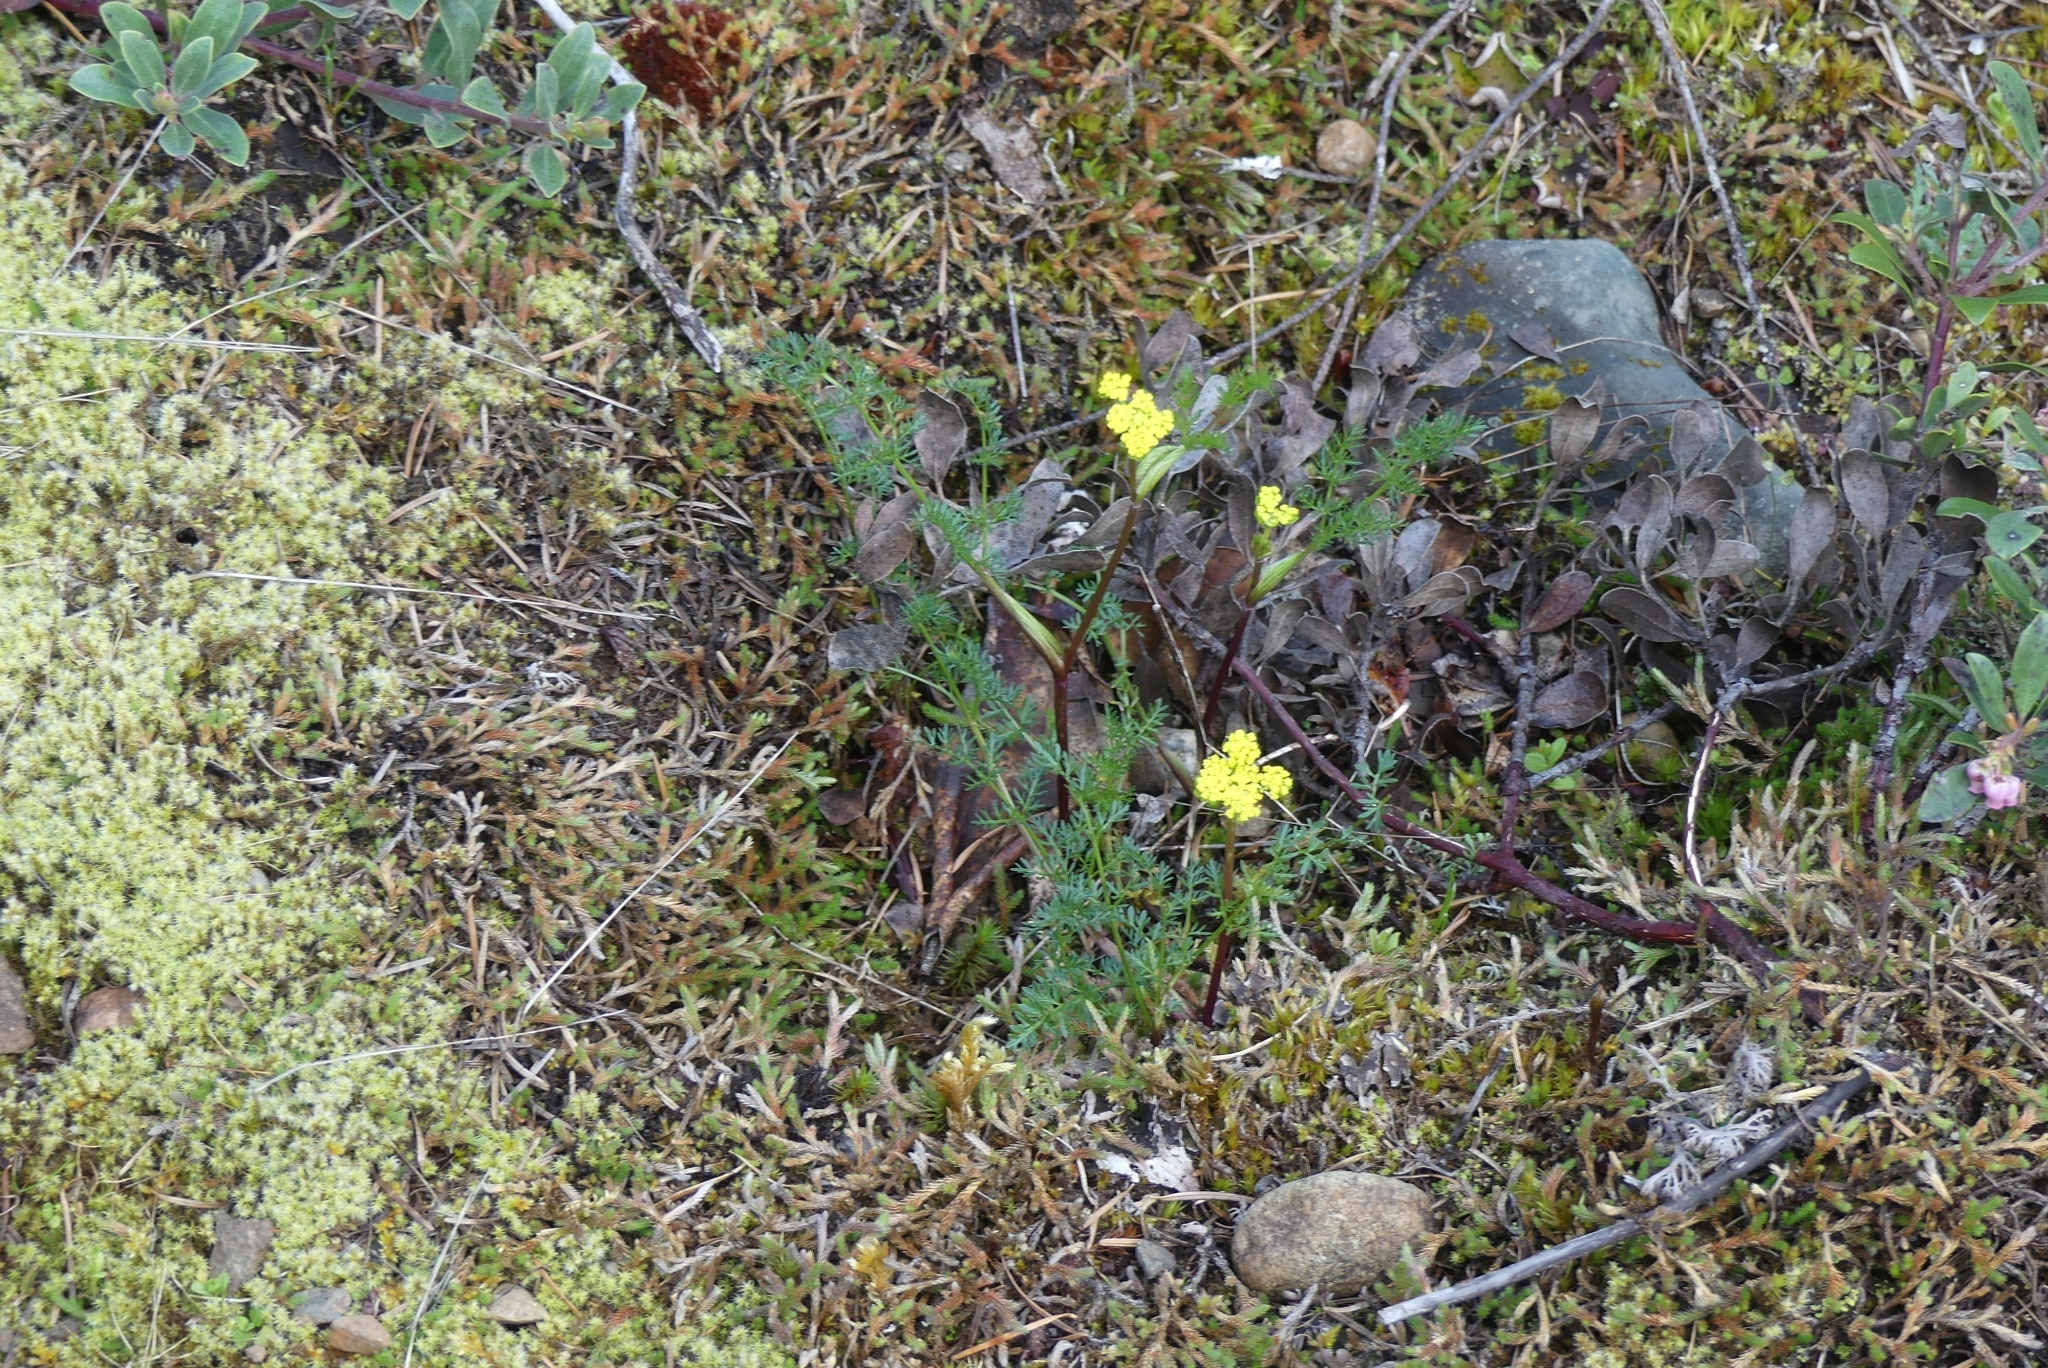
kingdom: Plantae
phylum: Tracheophyta
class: Magnoliopsida
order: Apiales
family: Apiaceae
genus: Lomatium
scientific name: Lomatium utriculatum
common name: Fine-leaf desert-parsley
